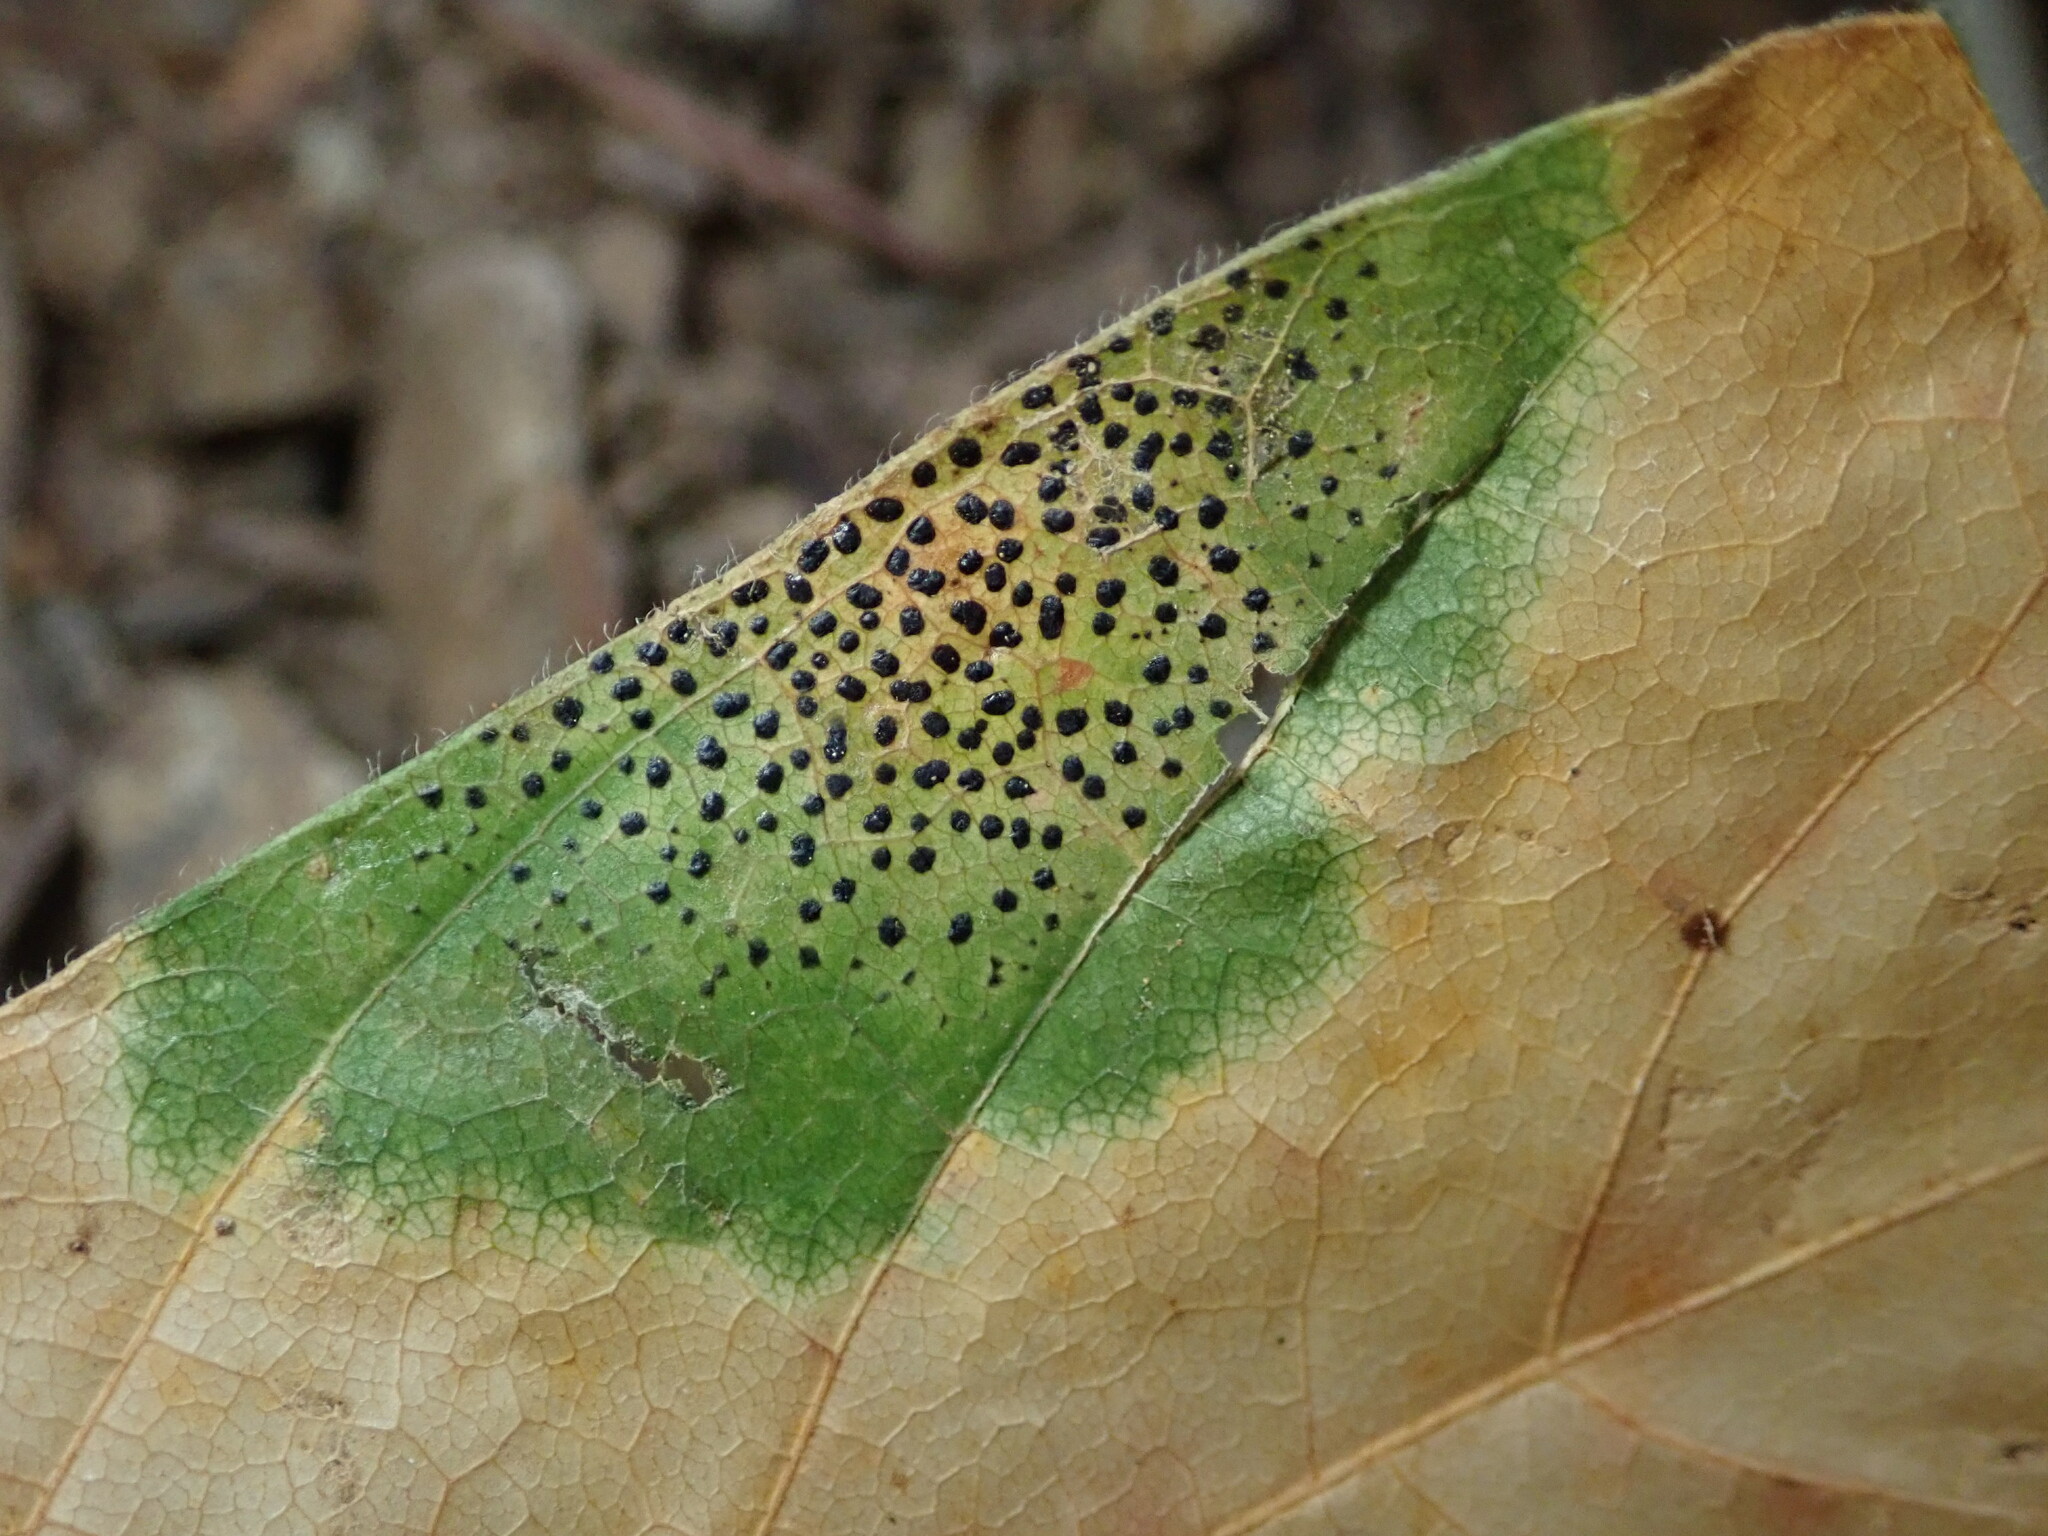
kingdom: Fungi
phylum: Ascomycota
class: Leotiomycetes
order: Rhytismatales
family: Rhytismataceae
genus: Rhytisma
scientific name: Rhytisma punctatum
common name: Speckled tar spot
